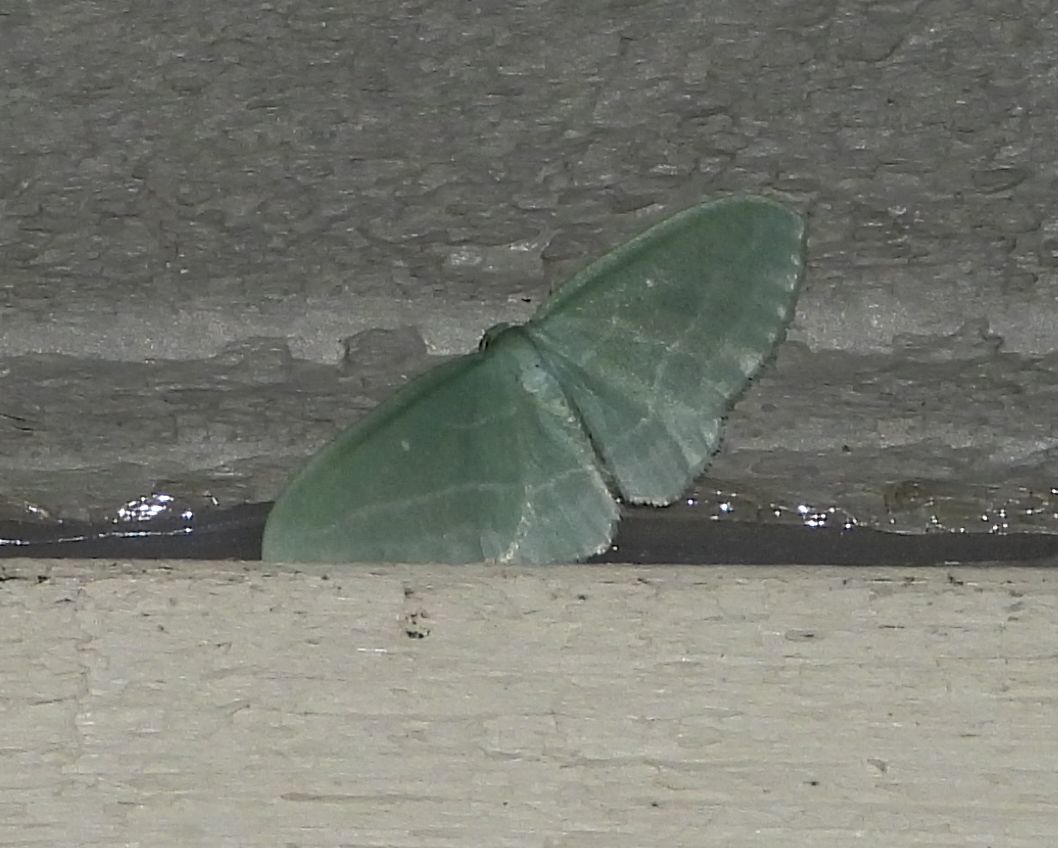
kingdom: Animalia
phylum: Arthropoda
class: Insecta
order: Lepidoptera
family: Geometridae
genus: Dyspteris
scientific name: Dyspteris abortivaria
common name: Bad-wing
